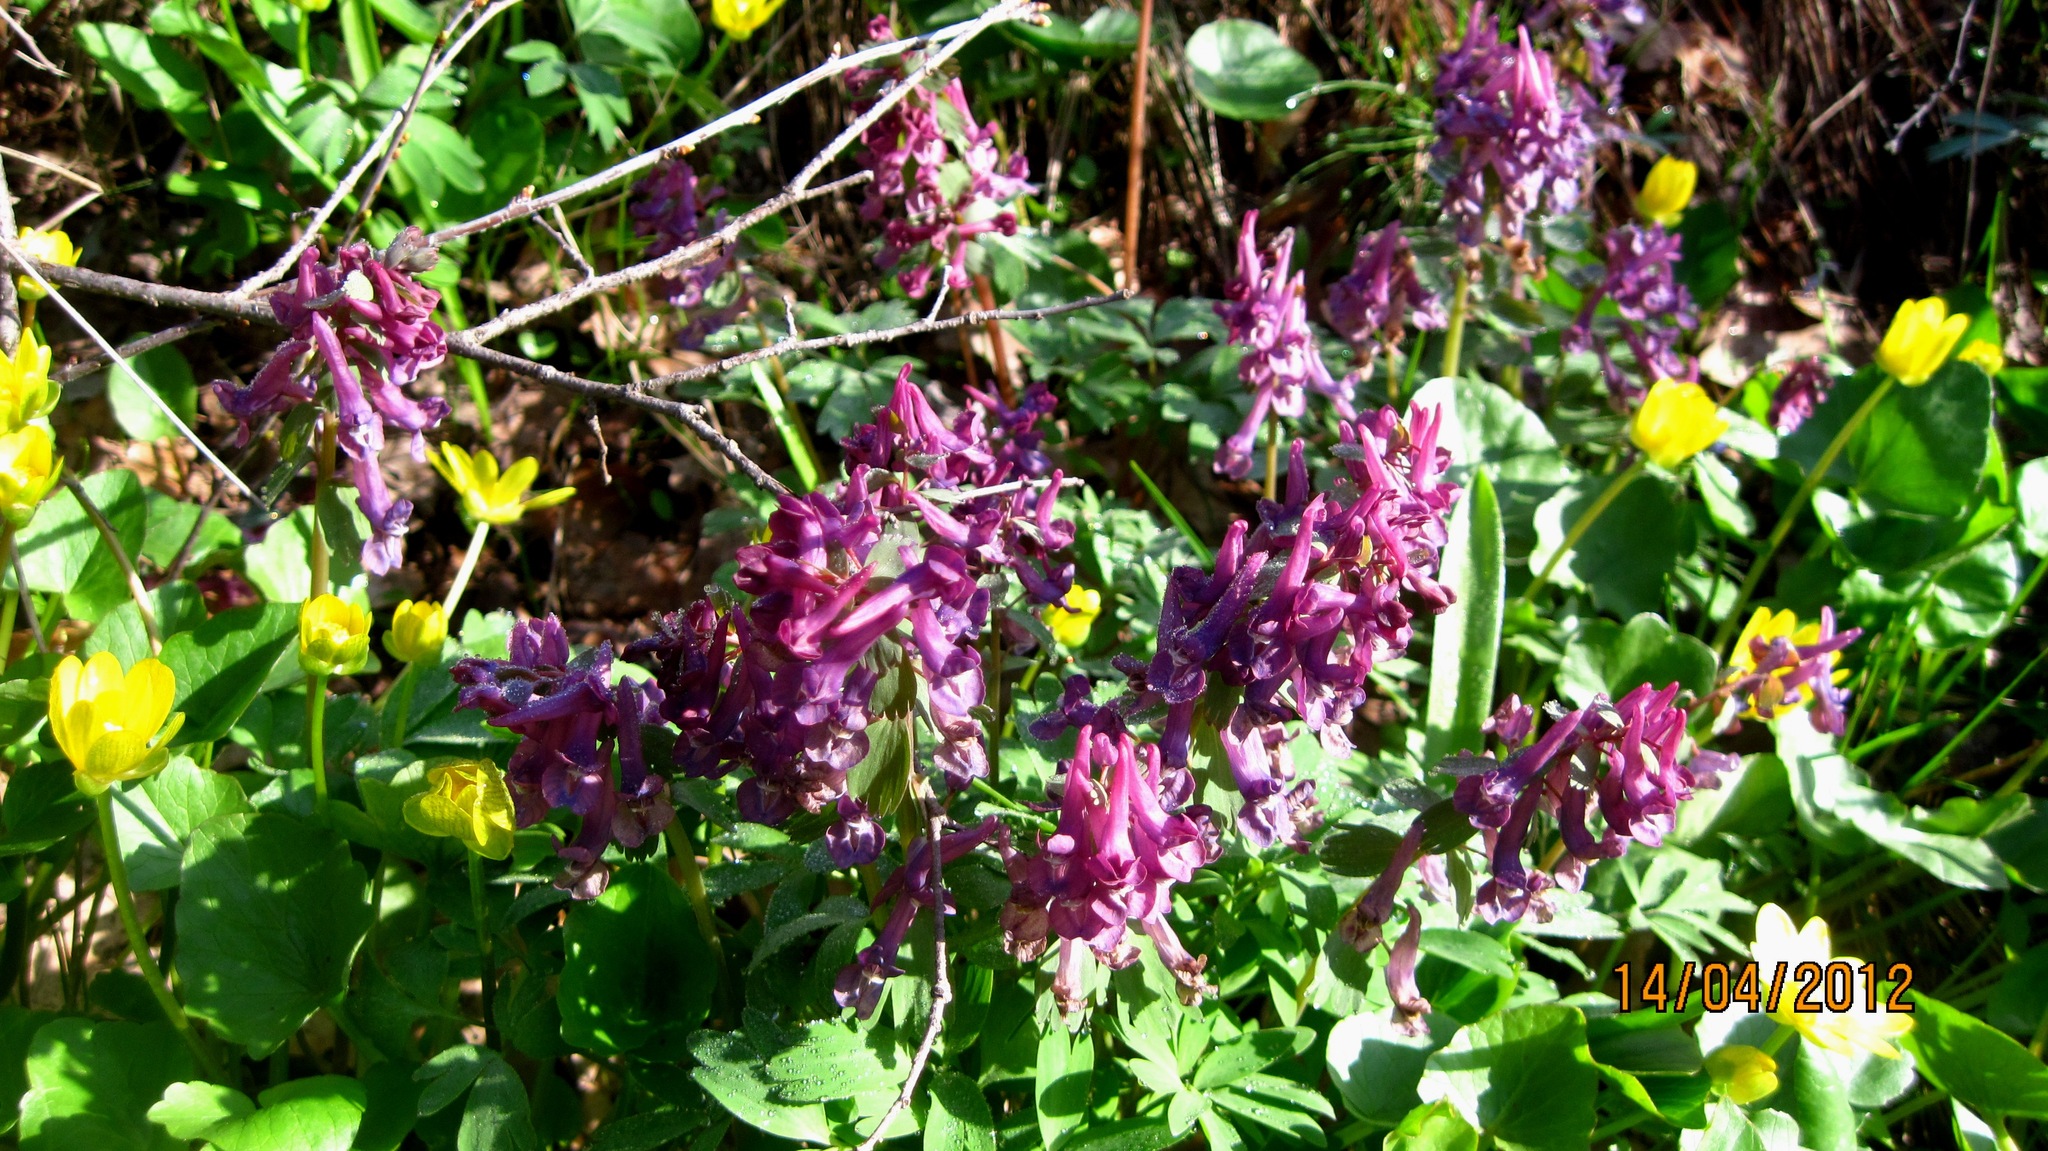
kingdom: Plantae
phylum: Tracheophyta
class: Magnoliopsida
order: Ranunculales
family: Papaveraceae
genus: Corydalis
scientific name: Corydalis solida
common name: Bird-in-a-bush
